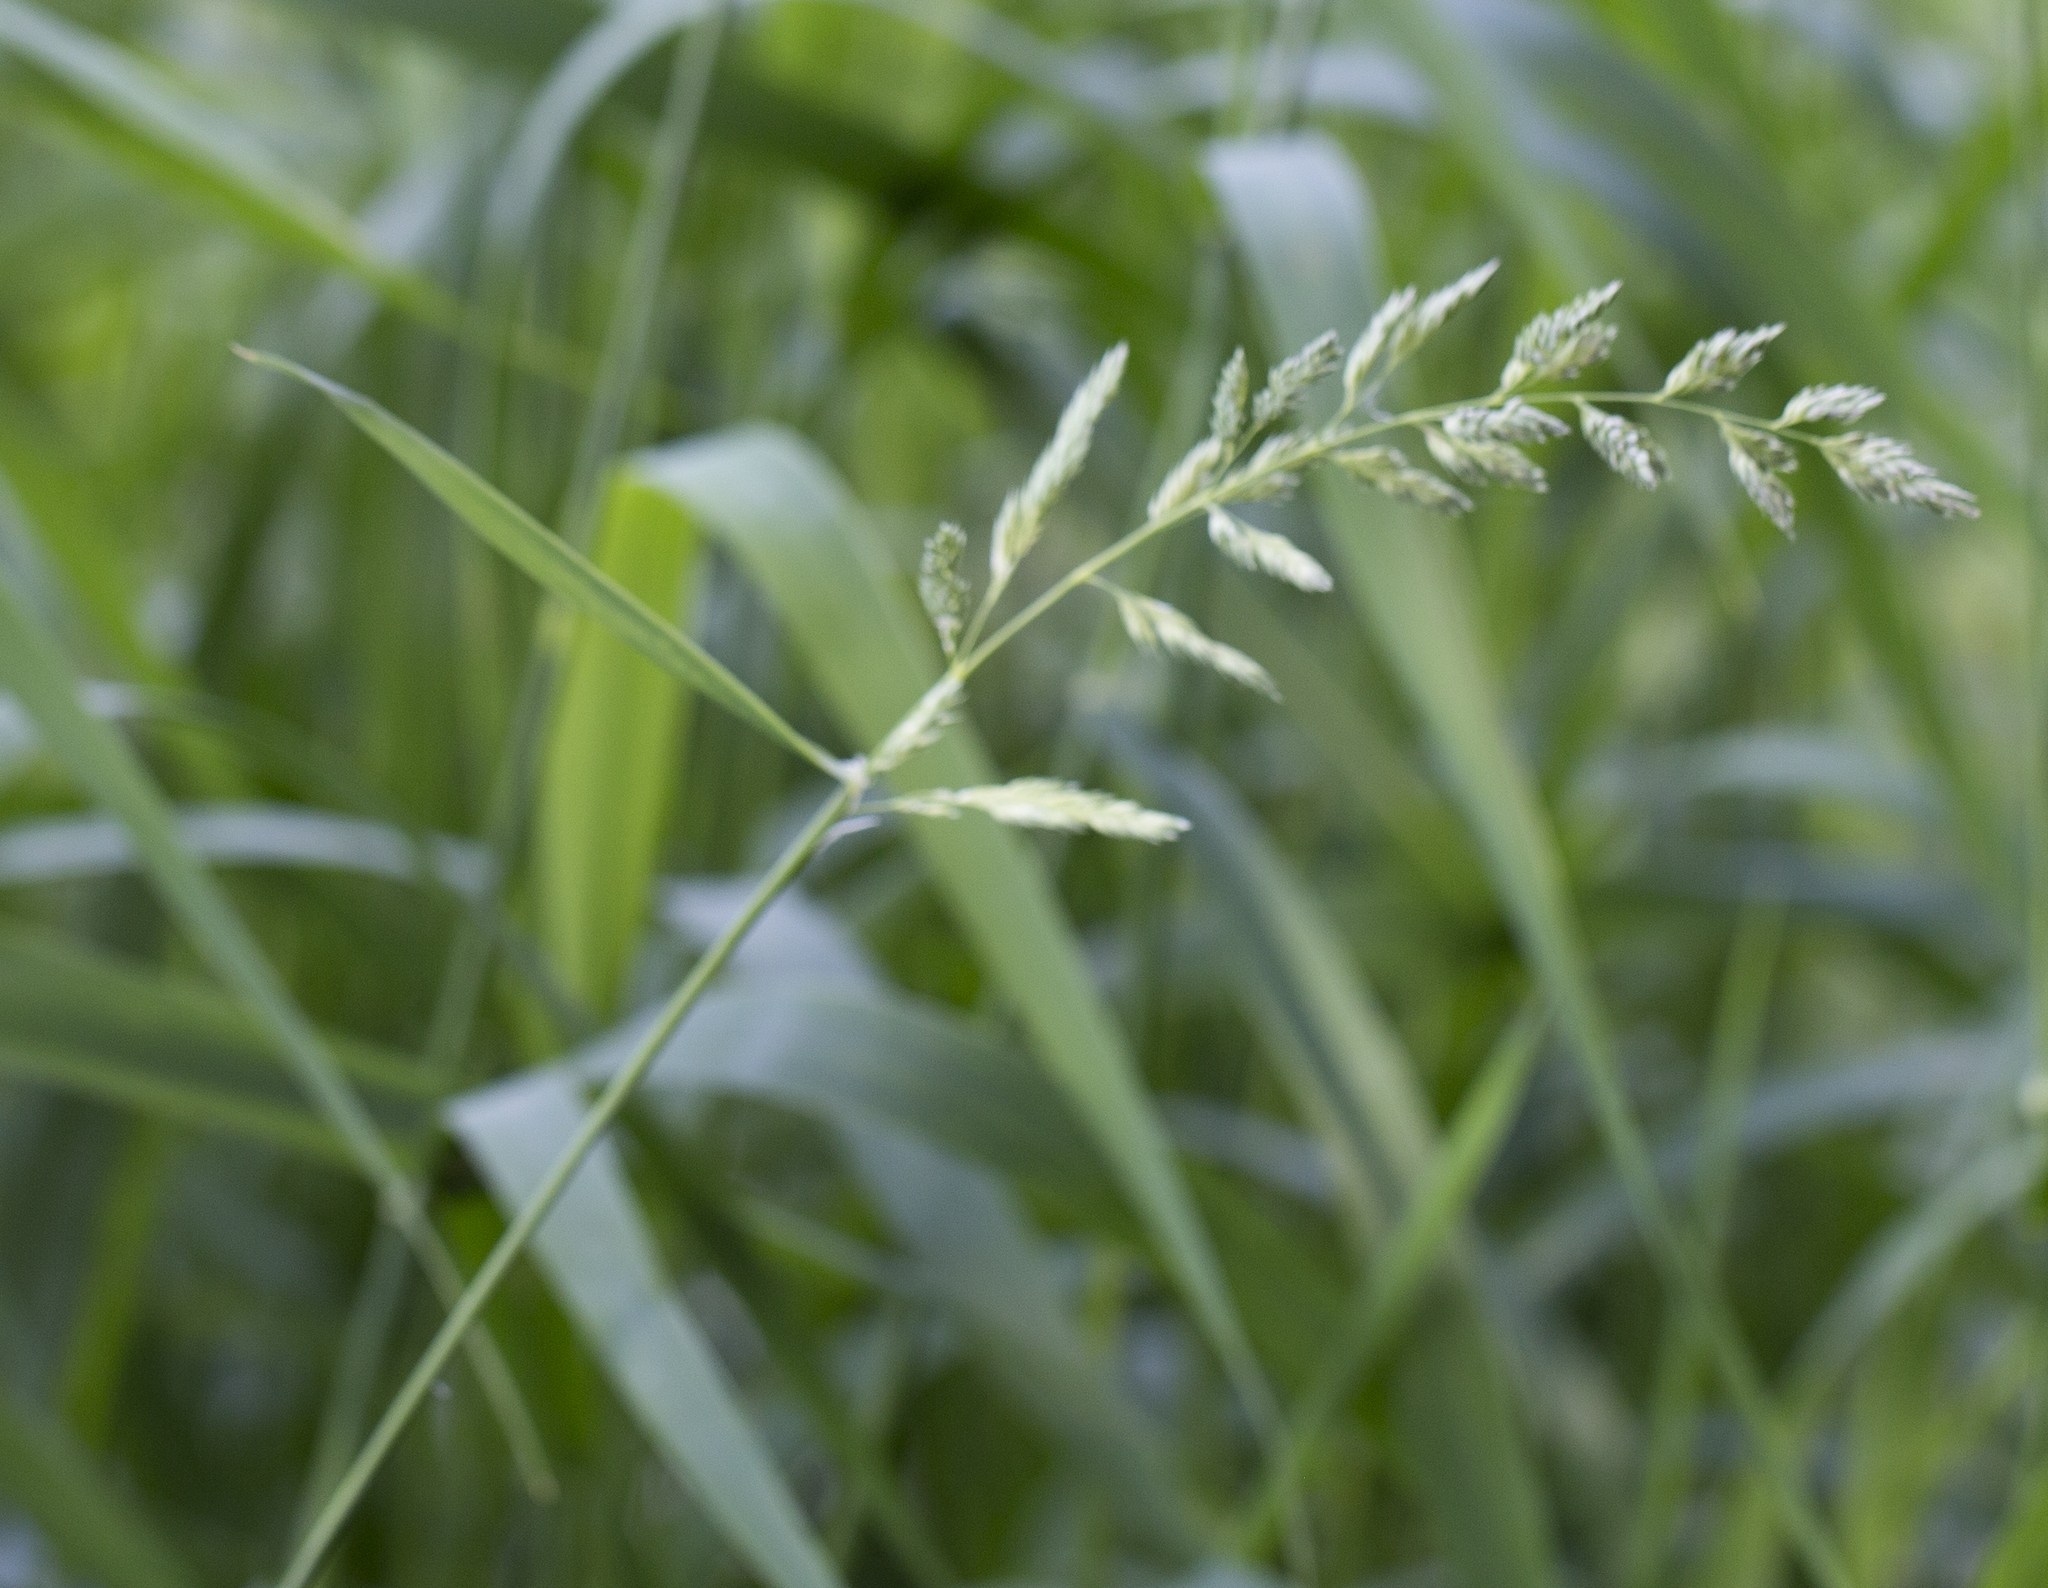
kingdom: Plantae
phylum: Tracheophyta
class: Liliopsida
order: Poales
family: Poaceae
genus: Phalaris
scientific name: Phalaris arundinacea
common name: Reed canary-grass
